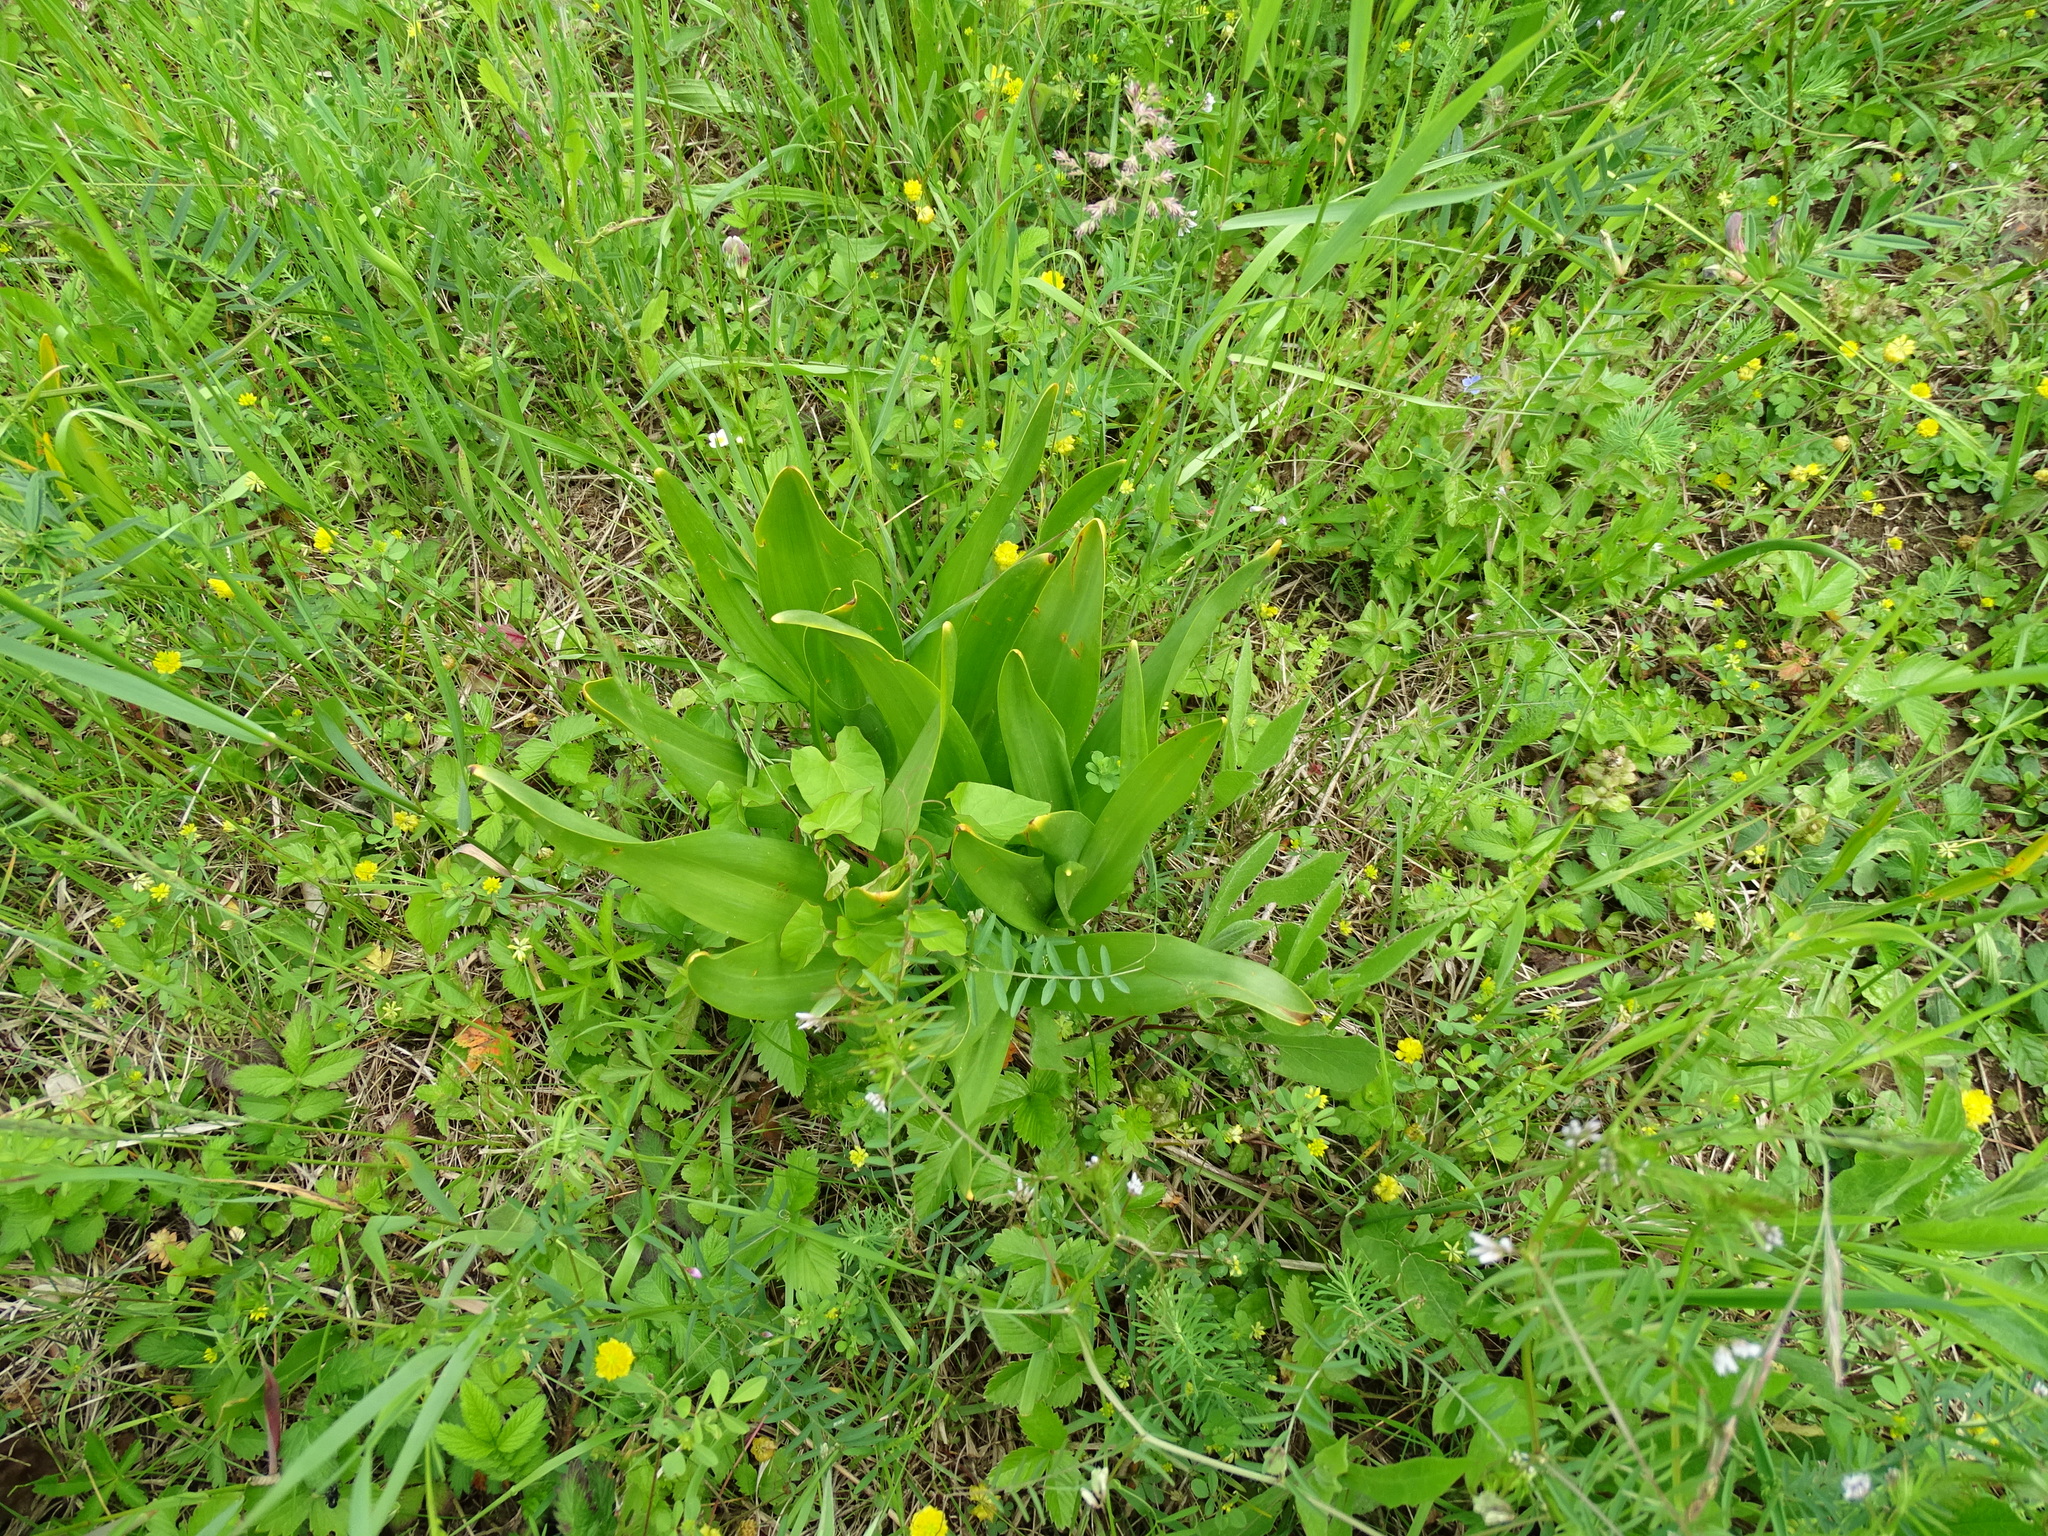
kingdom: Plantae
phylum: Tracheophyta
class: Liliopsida
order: Liliales
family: Colchicaceae
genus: Colchicum
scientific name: Colchicum autumnale
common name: Autumn crocus
